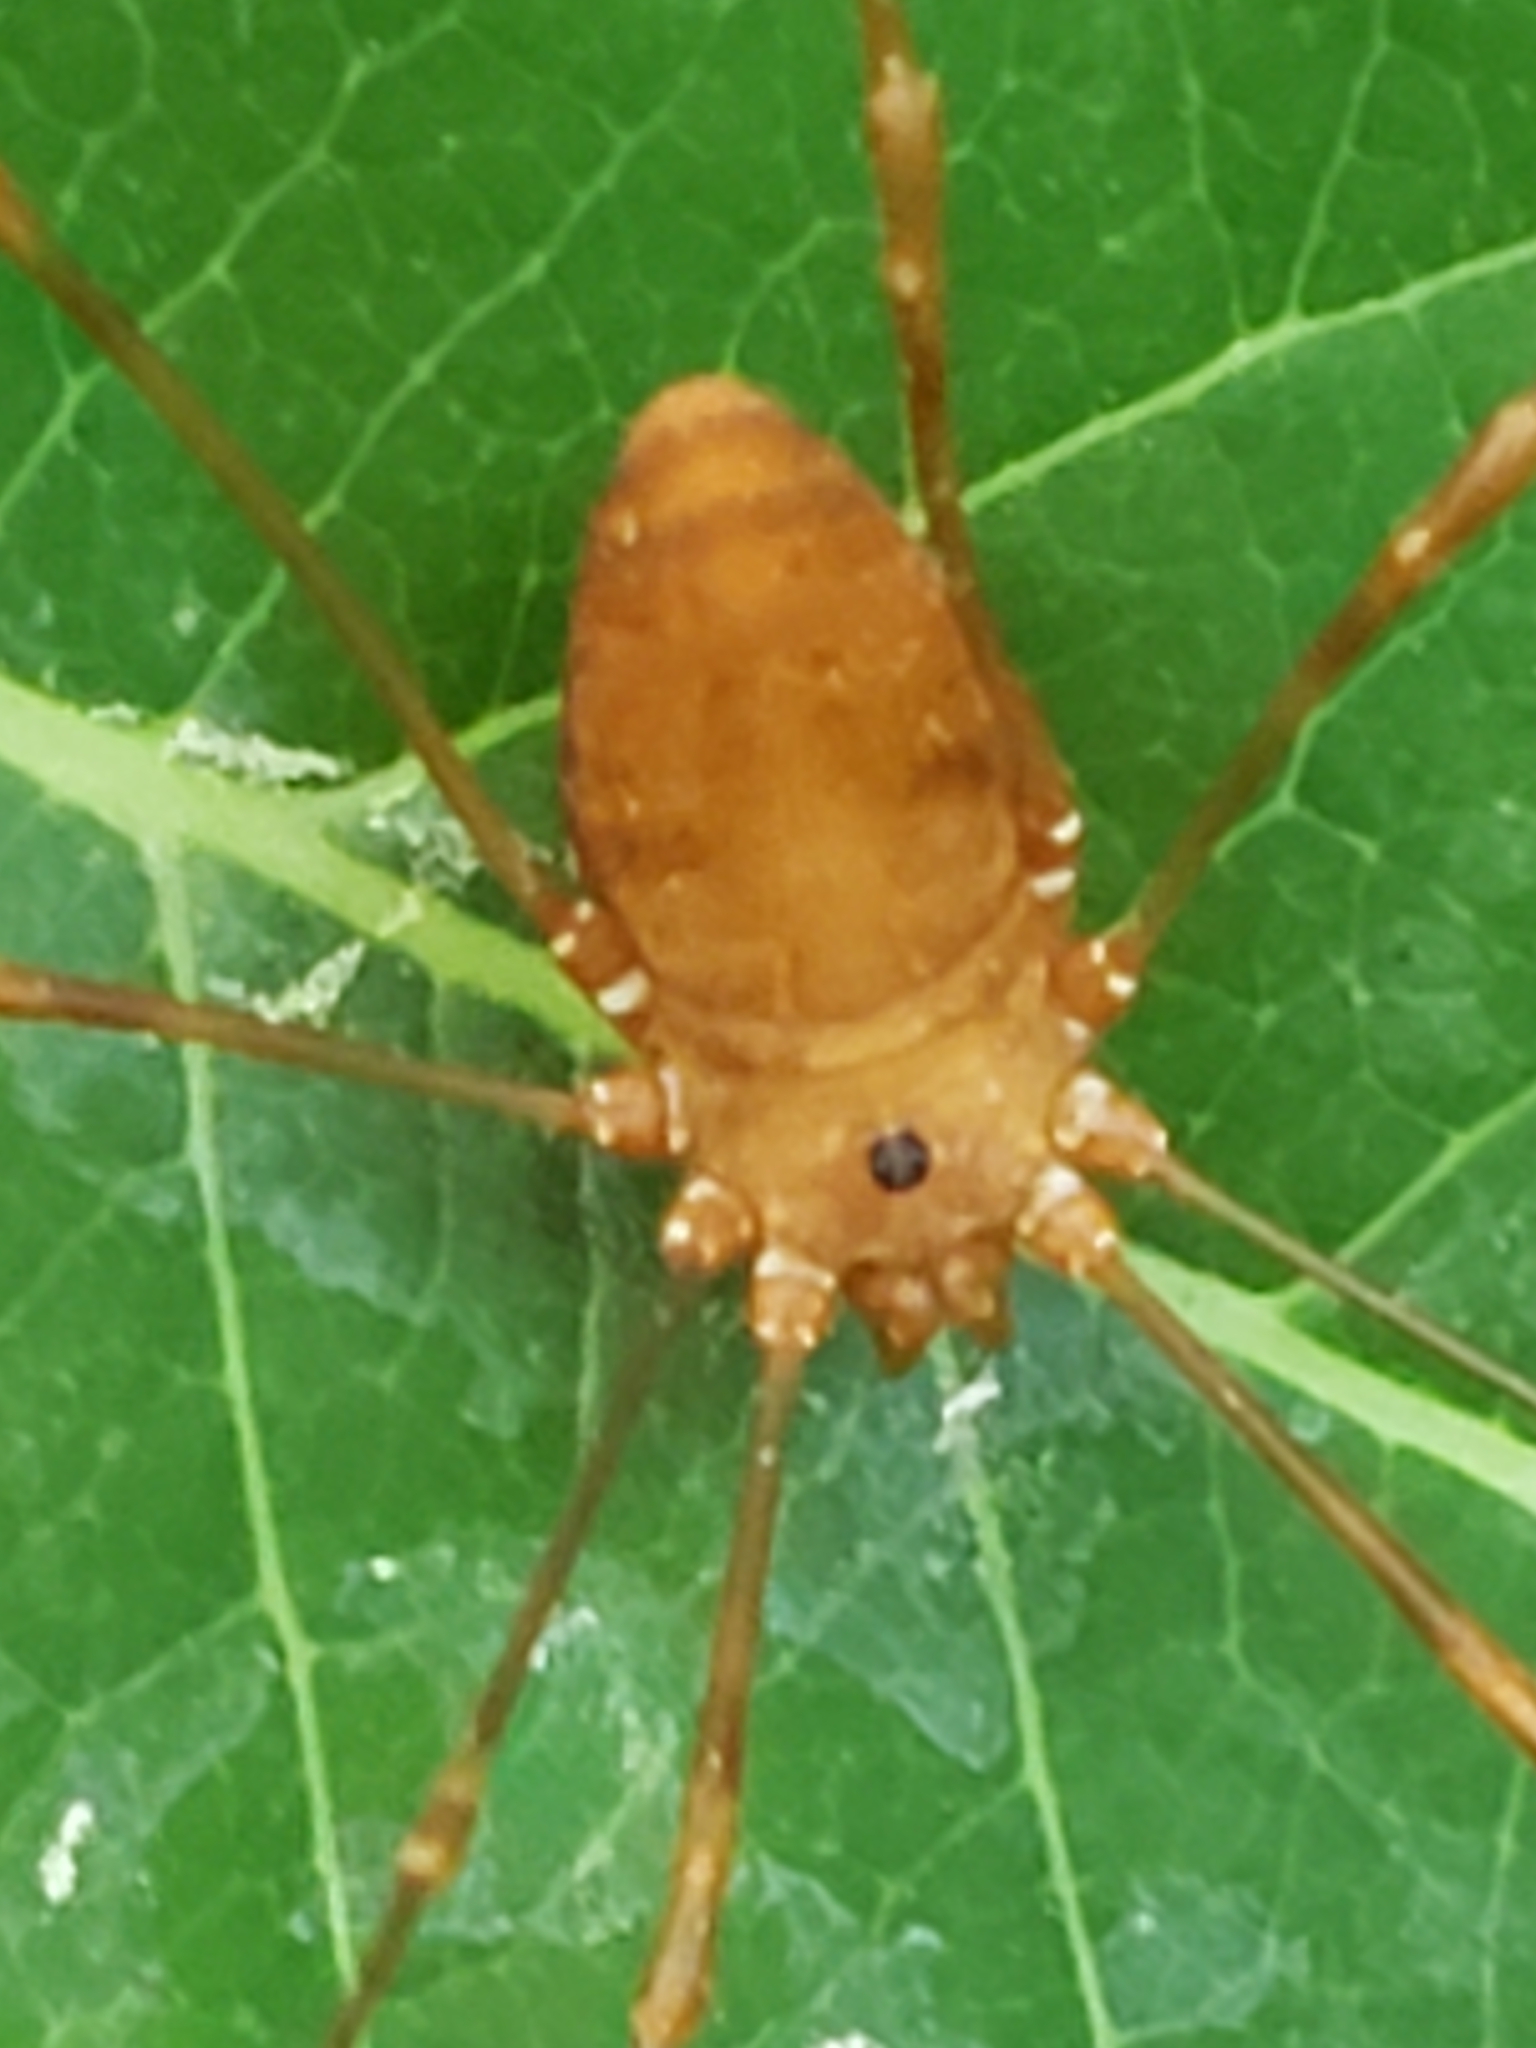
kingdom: Animalia
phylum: Arthropoda
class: Arachnida
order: Opiliones
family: Sclerosomatidae
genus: Leiobunum
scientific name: Leiobunum ventricosum
